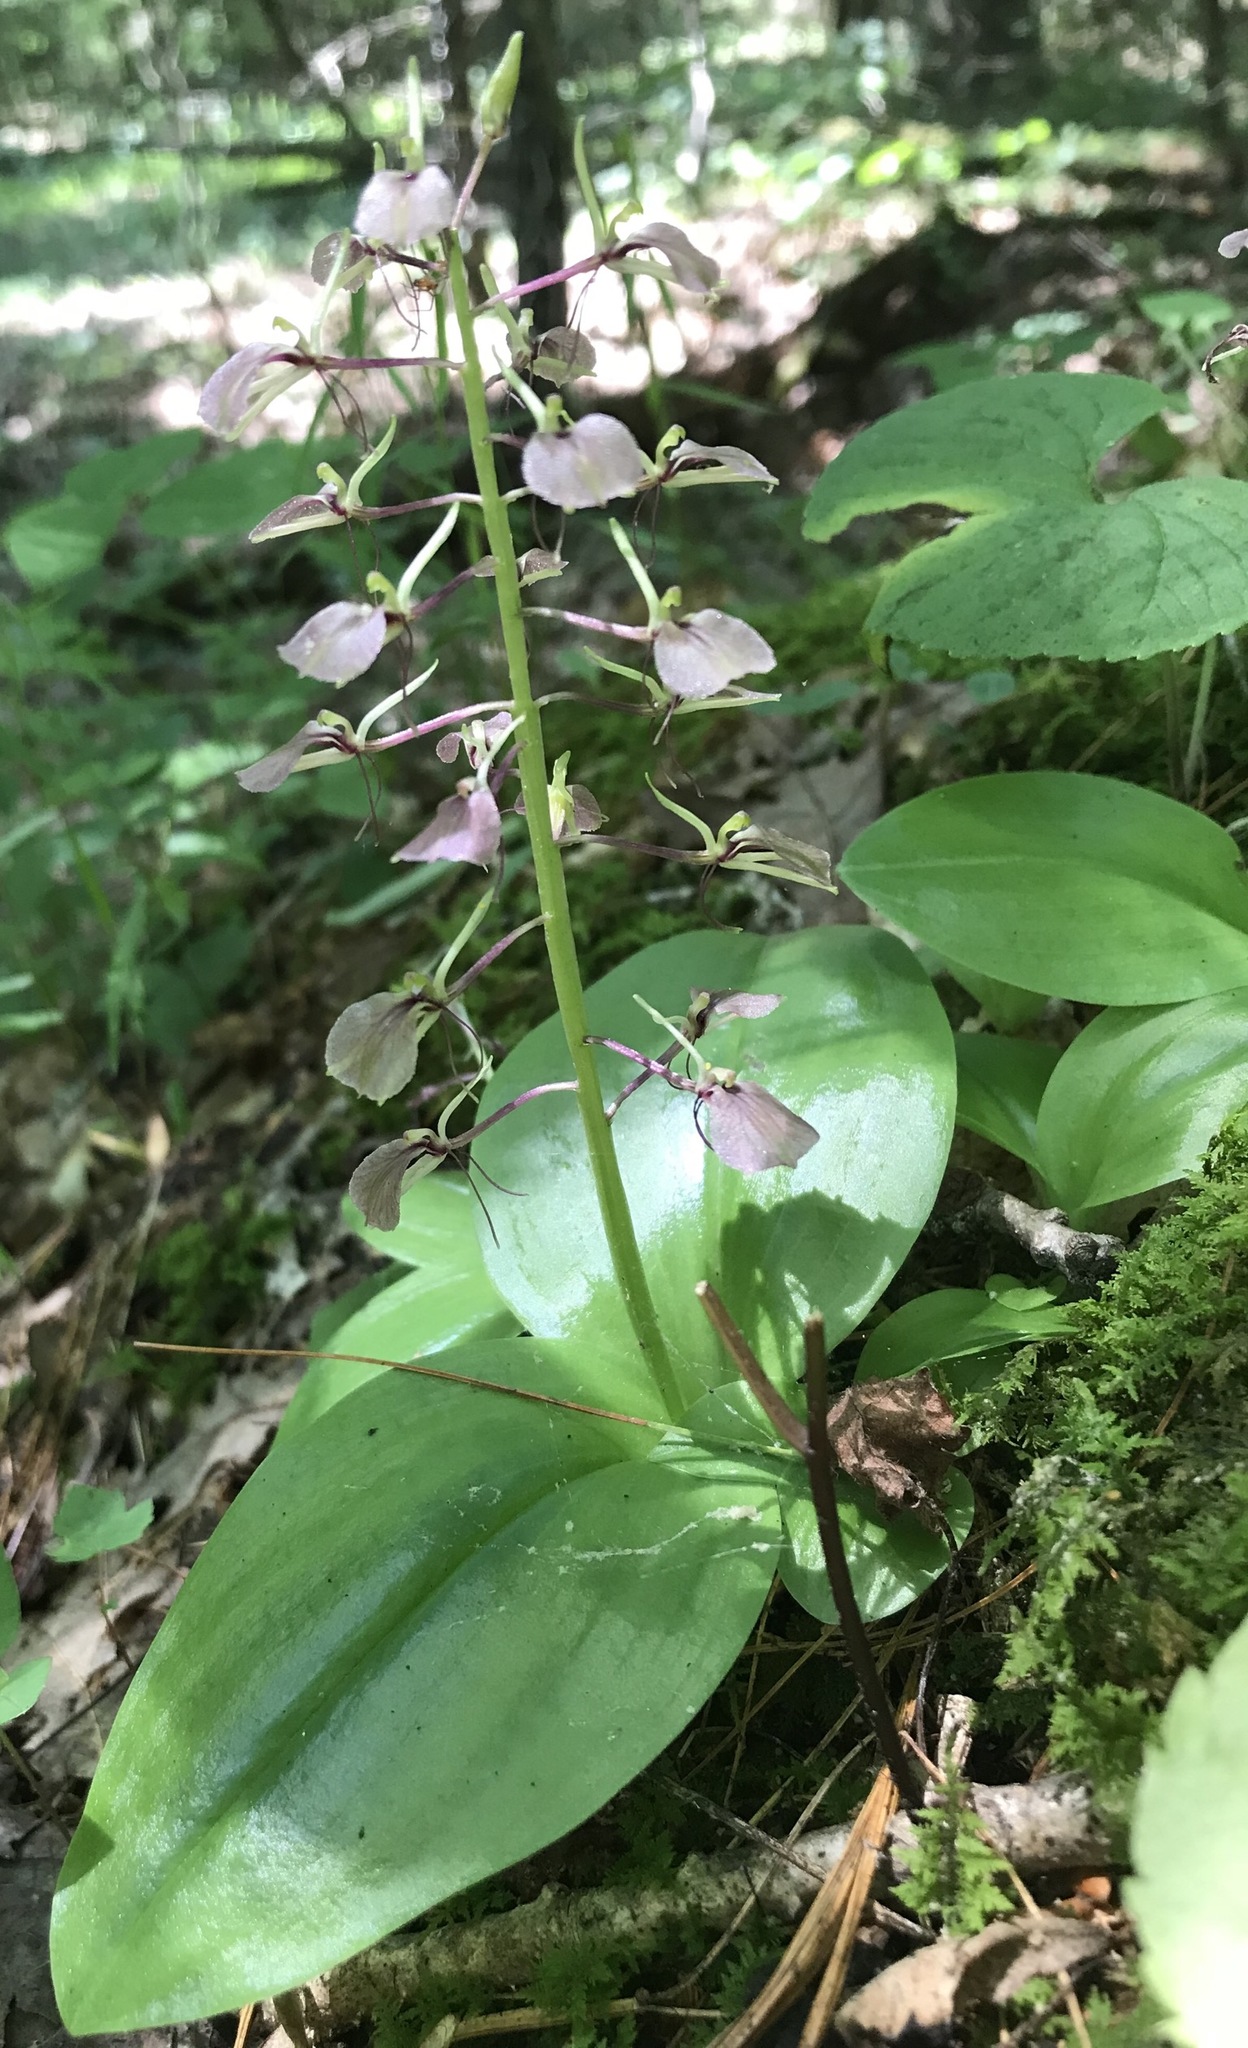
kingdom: Plantae
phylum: Tracheophyta
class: Liliopsida
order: Asparagales
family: Orchidaceae
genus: Liparis
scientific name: Liparis liliifolia
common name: Brown wide-lip orchid
